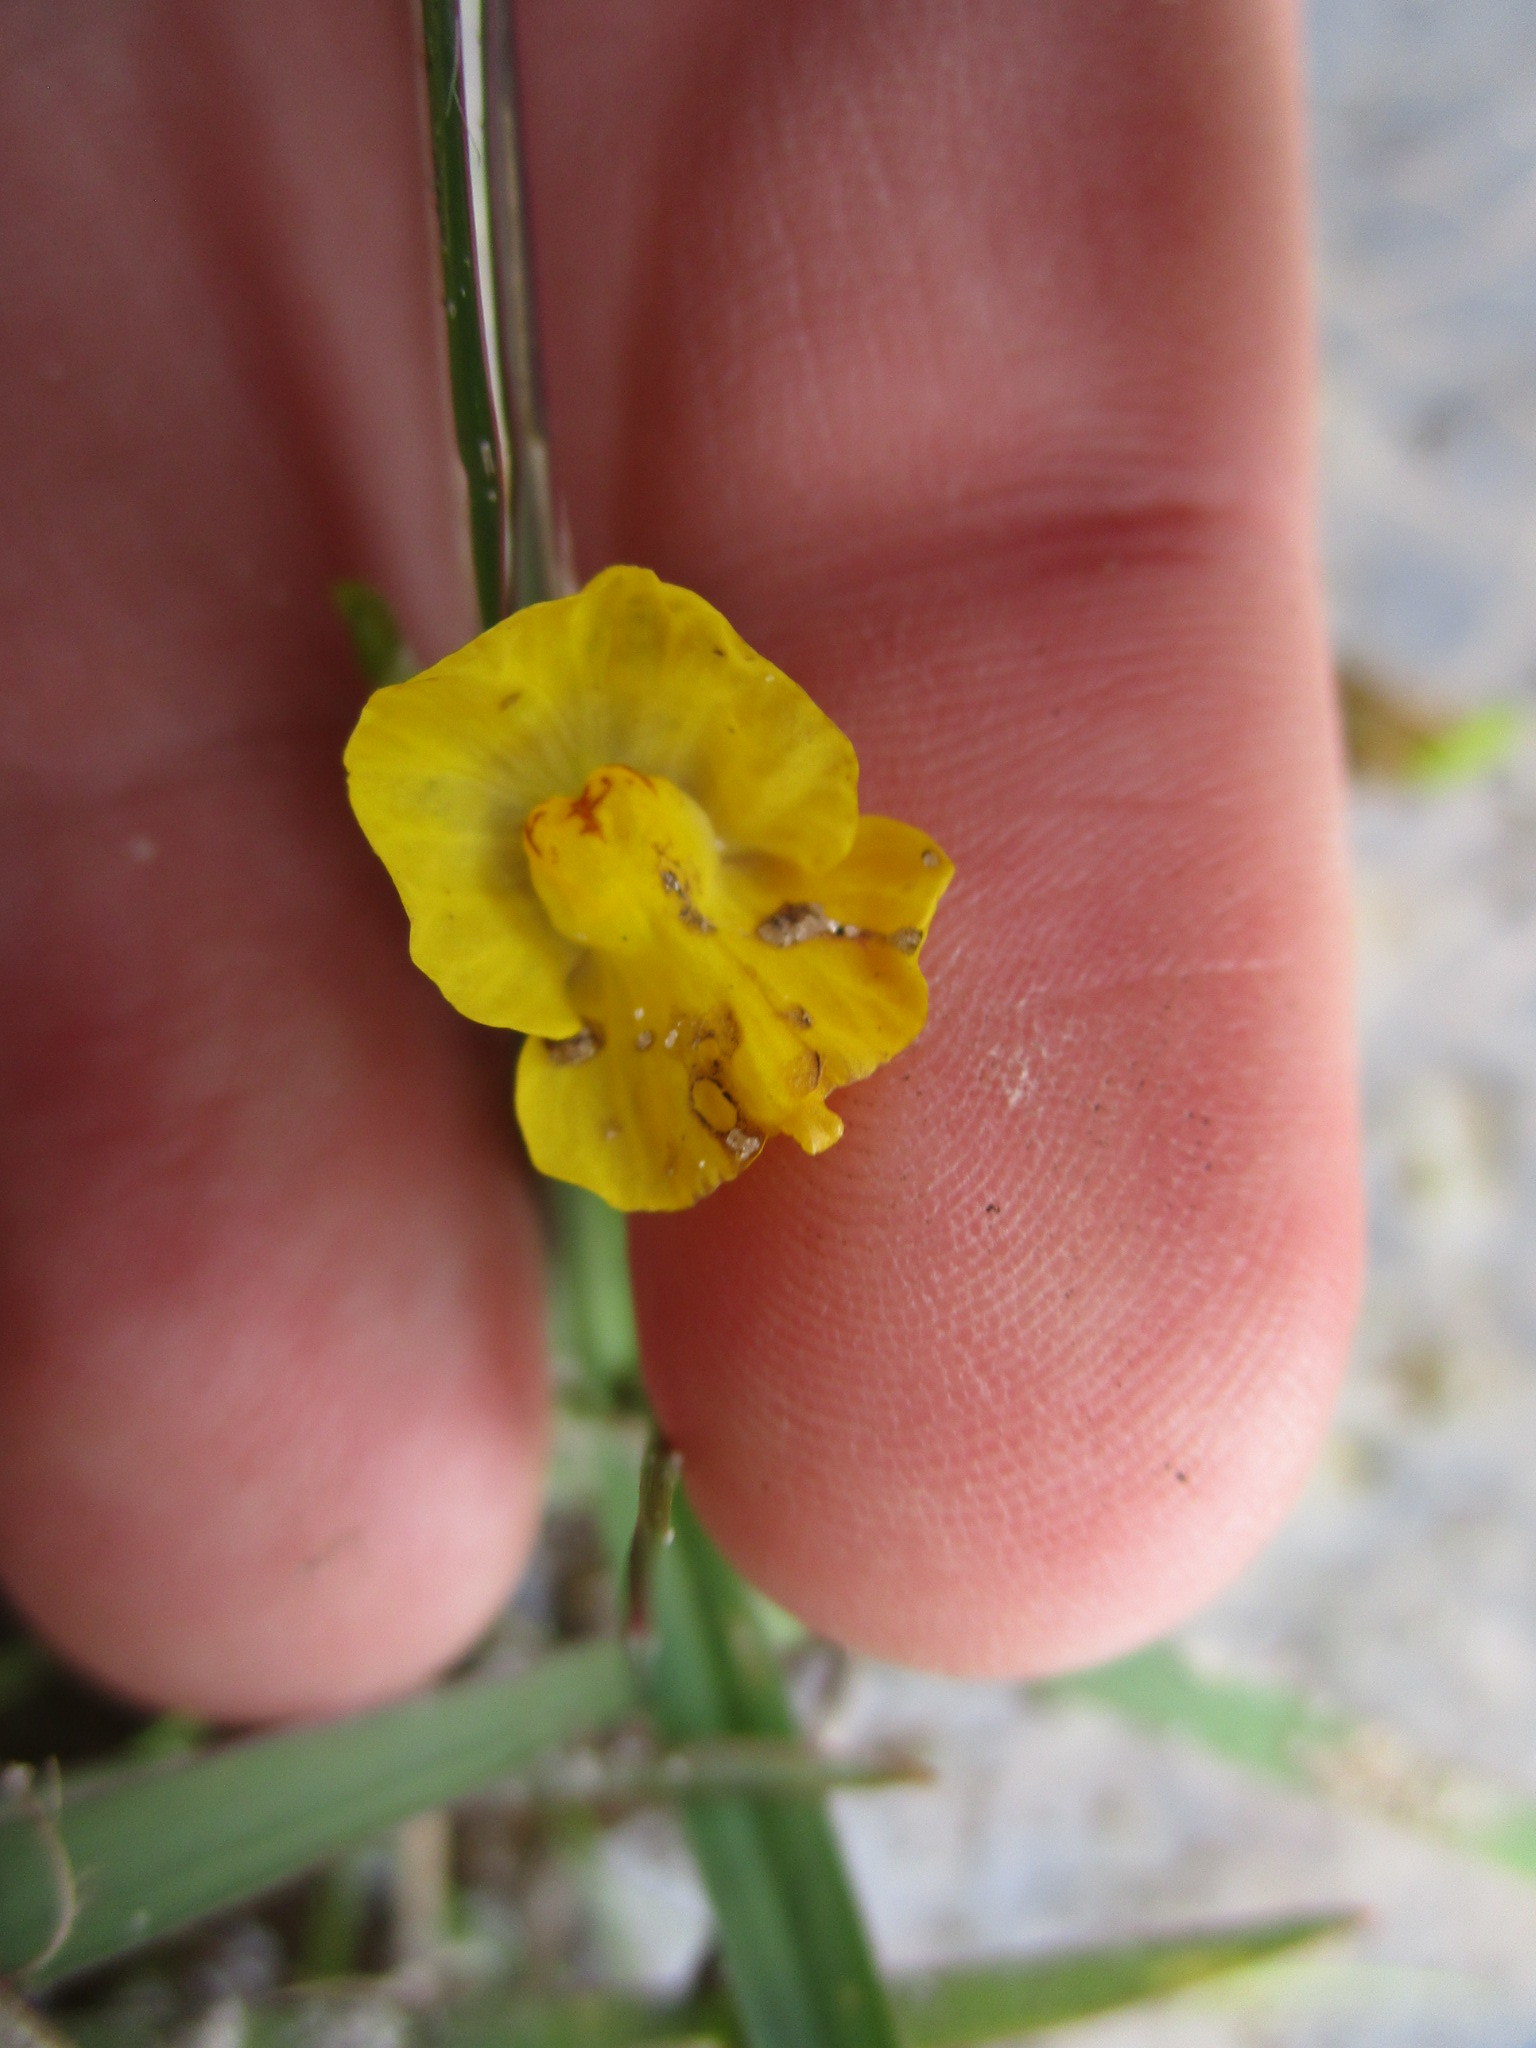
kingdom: Plantae
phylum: Tracheophyta
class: Magnoliopsida
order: Lamiales
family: Lentibulariaceae
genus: Utricularia
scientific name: Utricularia gibba
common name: Humped bladderwort
